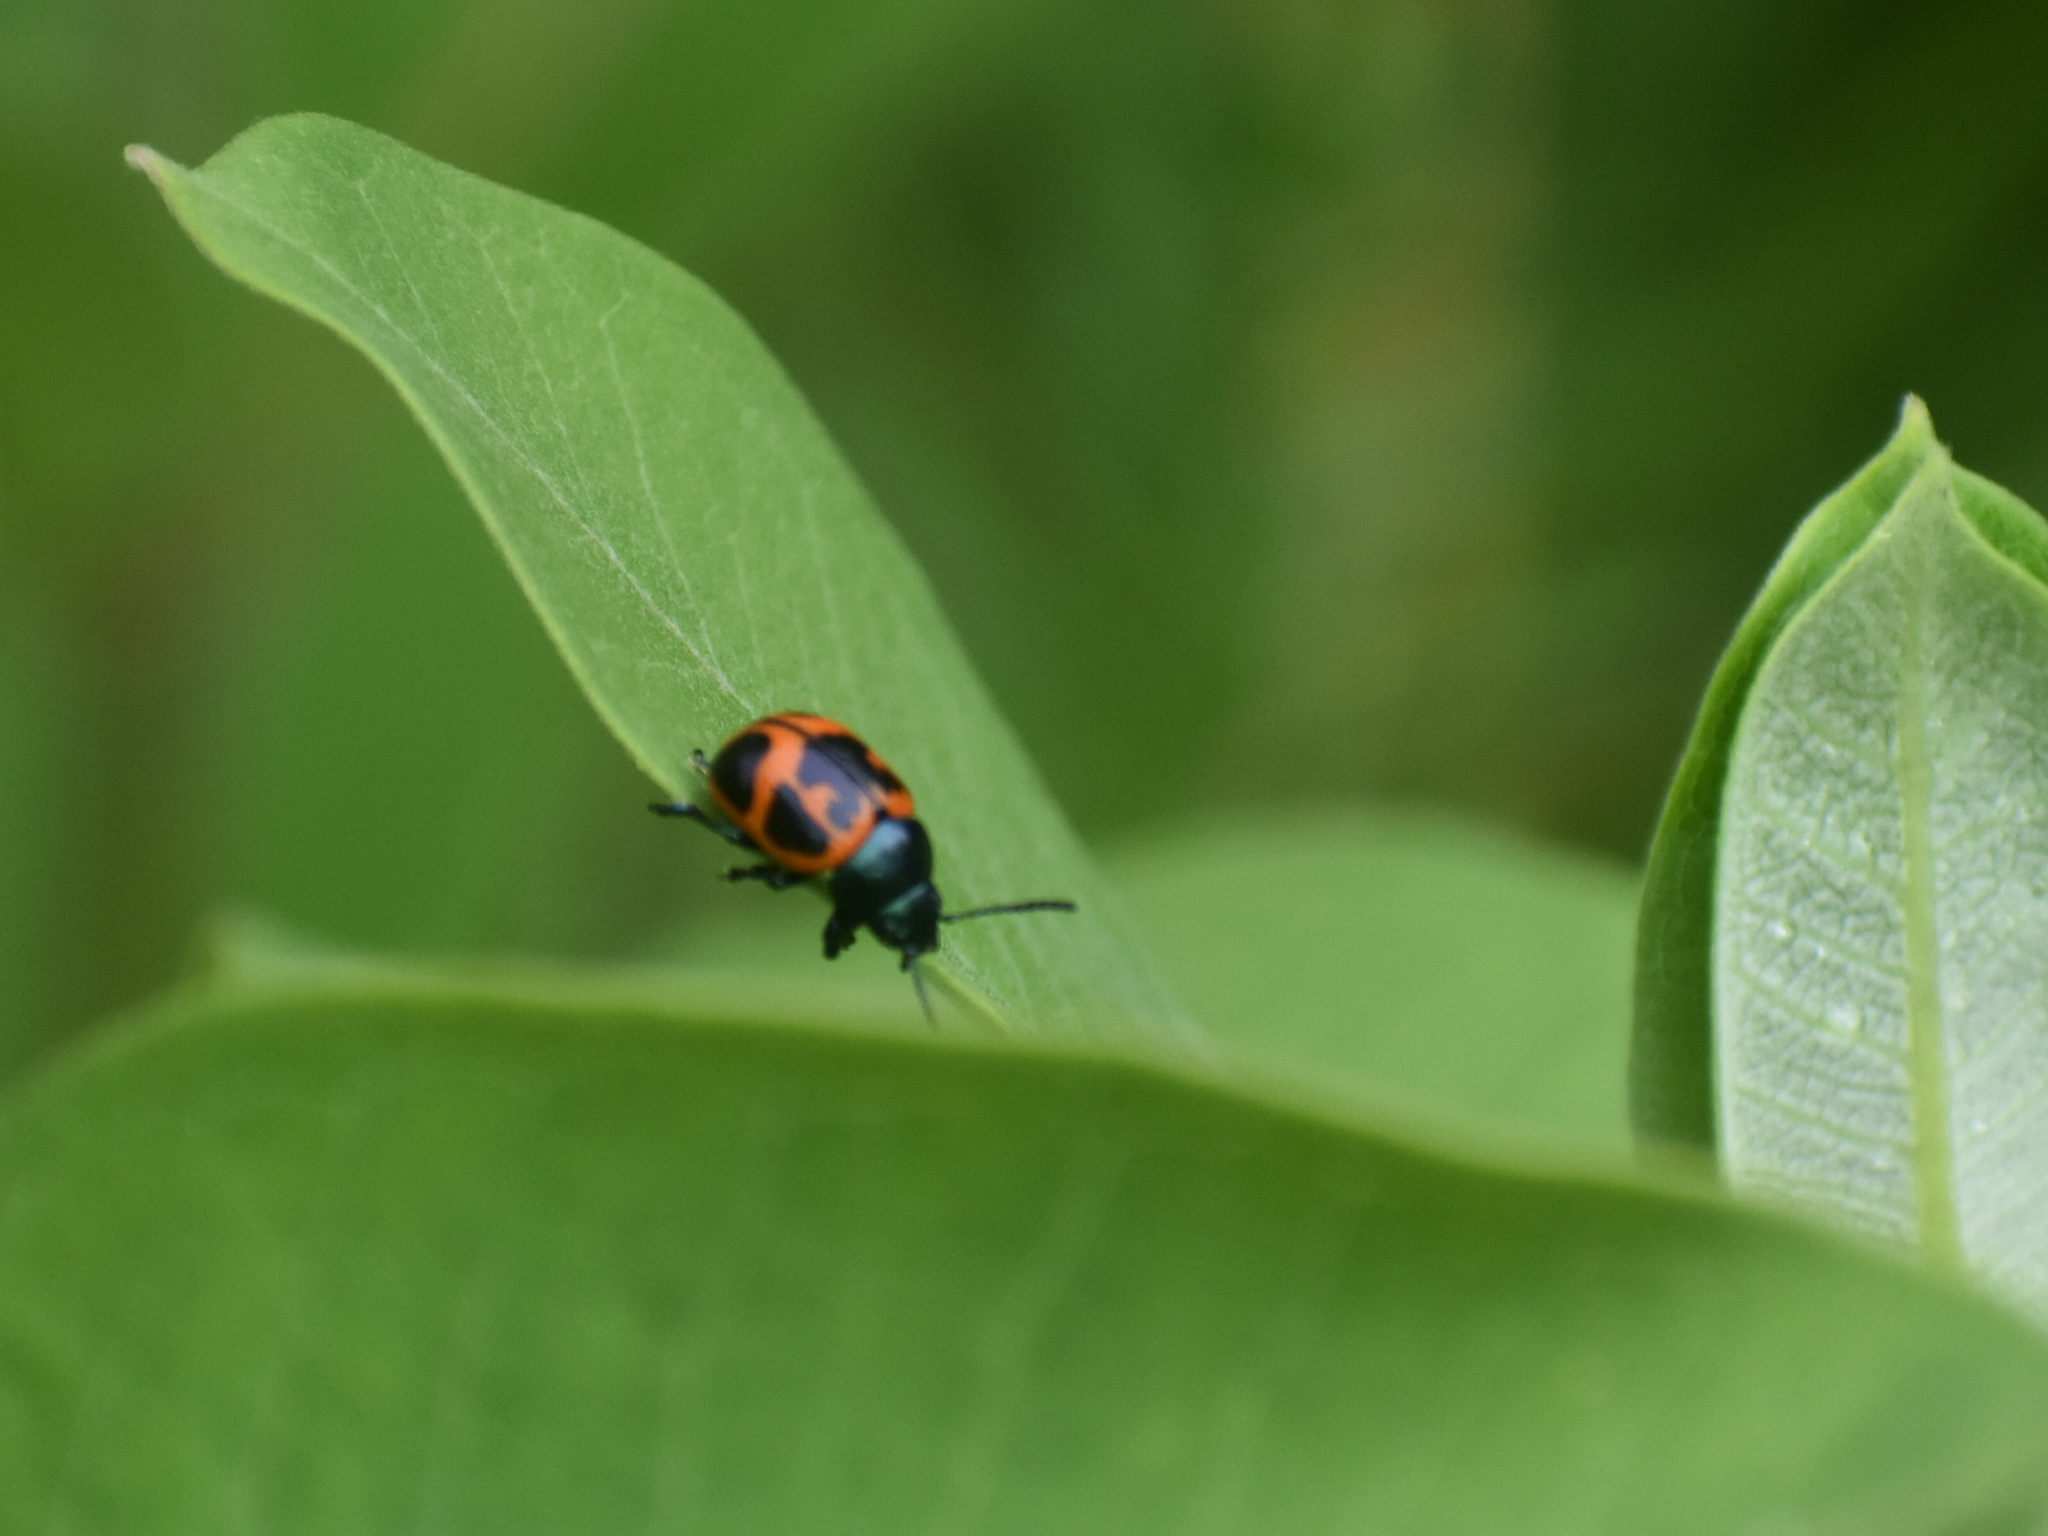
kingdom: Animalia
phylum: Arthropoda
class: Insecta
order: Coleoptera
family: Chrysomelidae
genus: Labidomera
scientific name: Labidomera clivicollis
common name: Swamp milkweed leaf beetle
